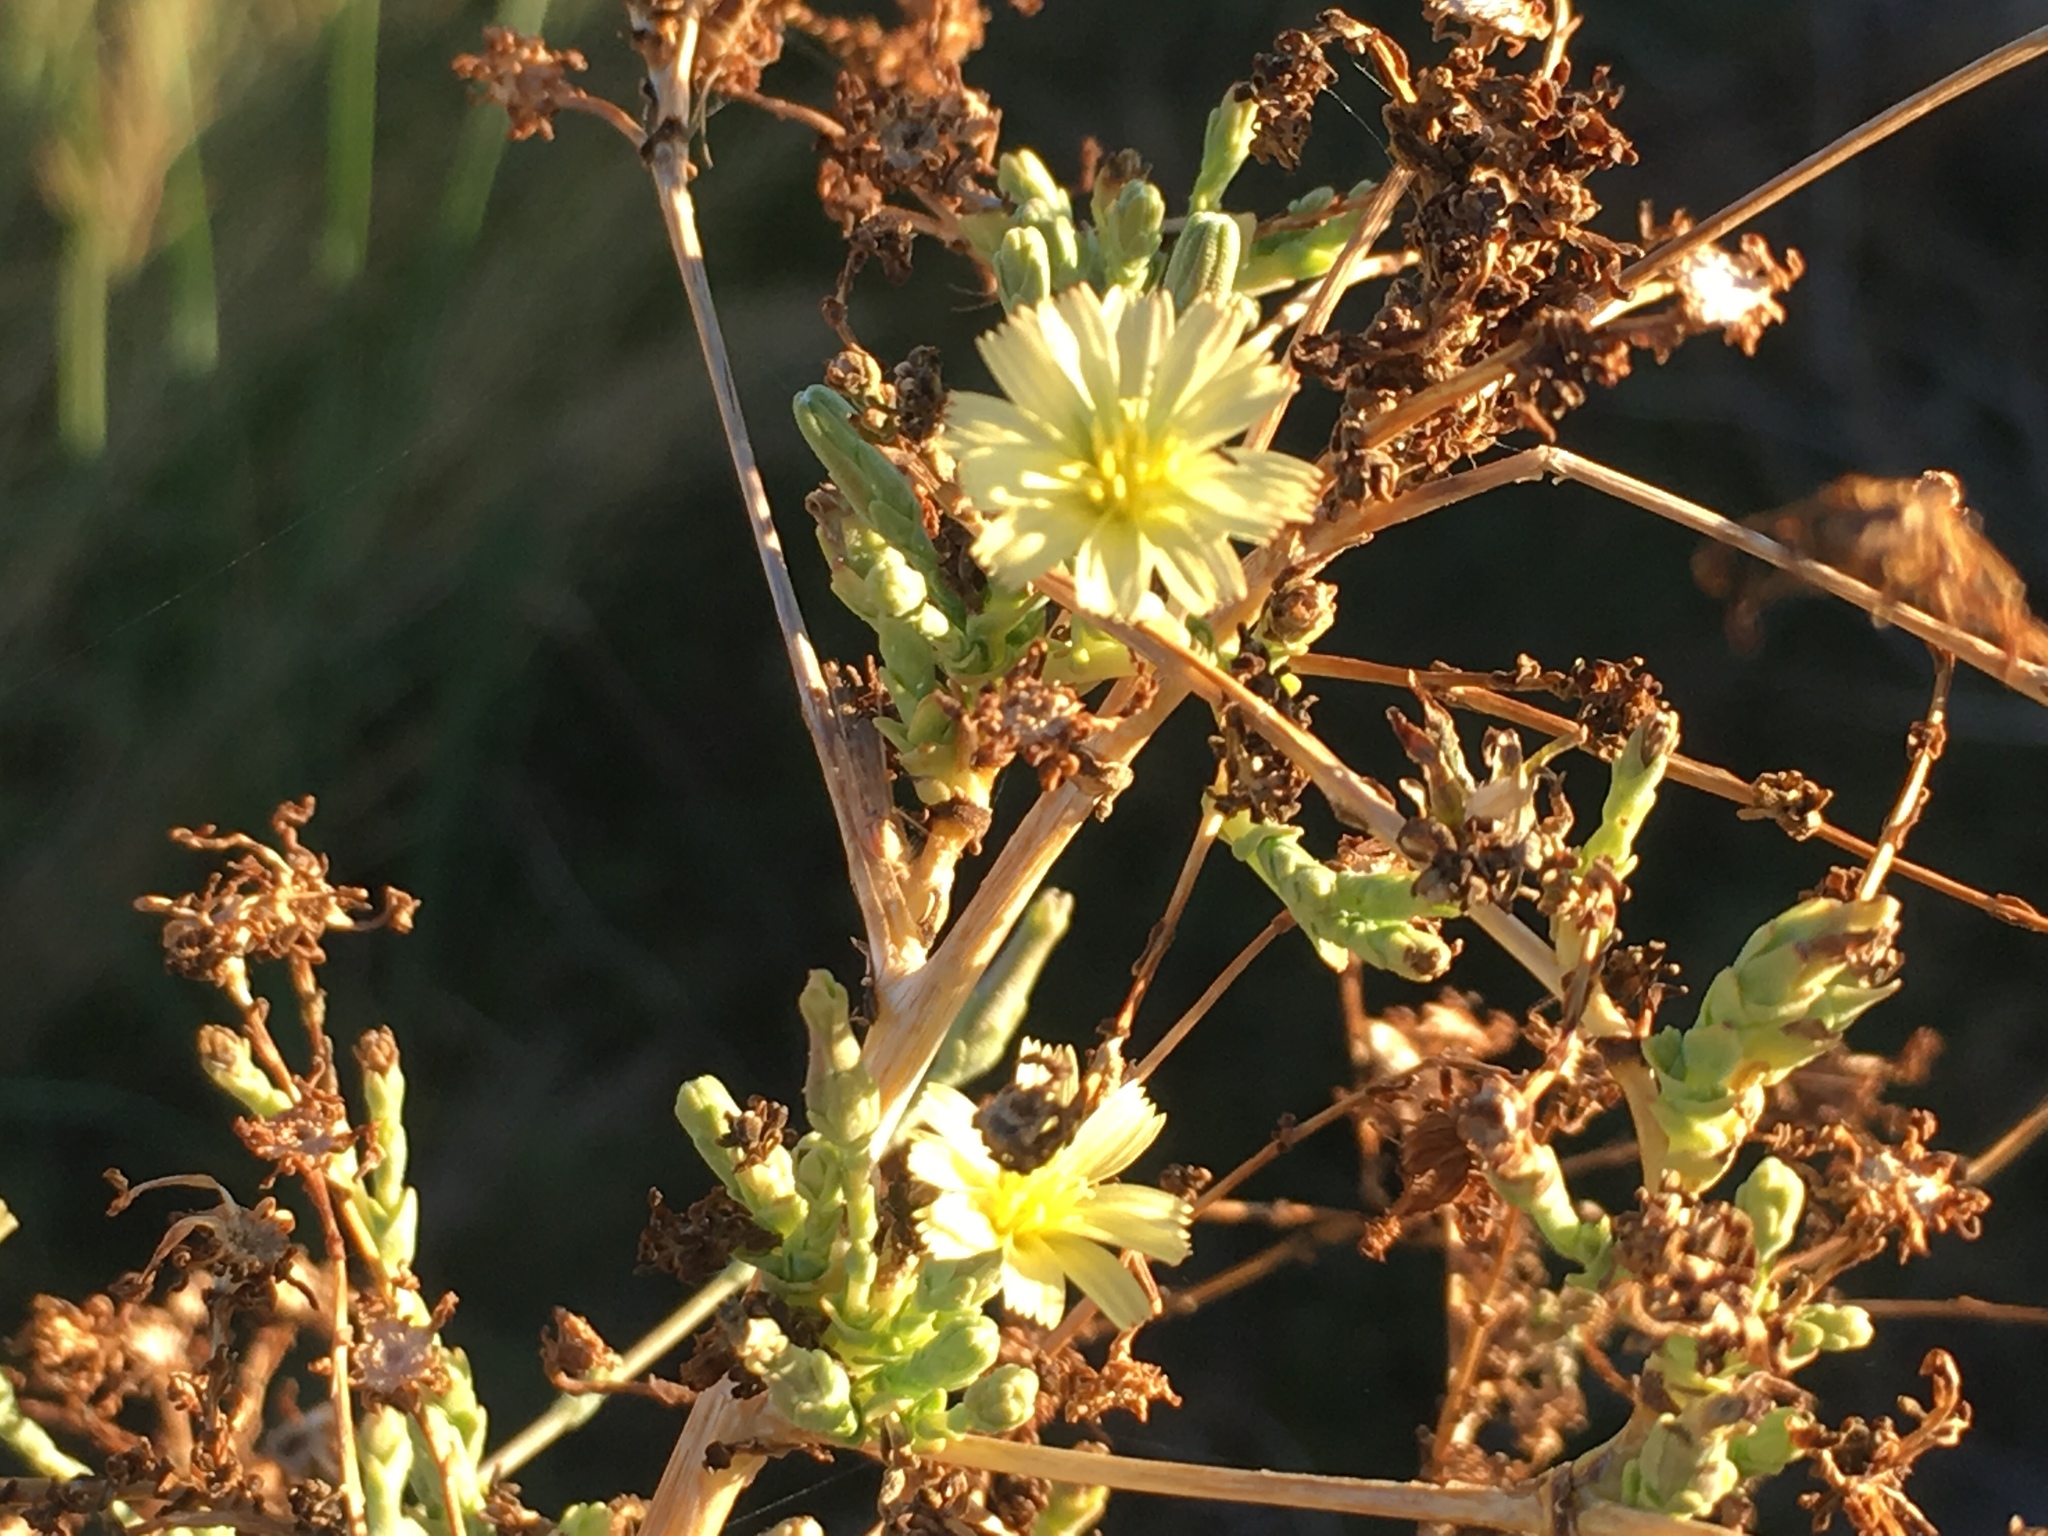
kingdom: Plantae
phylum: Tracheophyta
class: Magnoliopsida
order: Asterales
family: Asteraceae
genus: Lactuca
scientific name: Lactuca serriola
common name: Prickly lettuce
